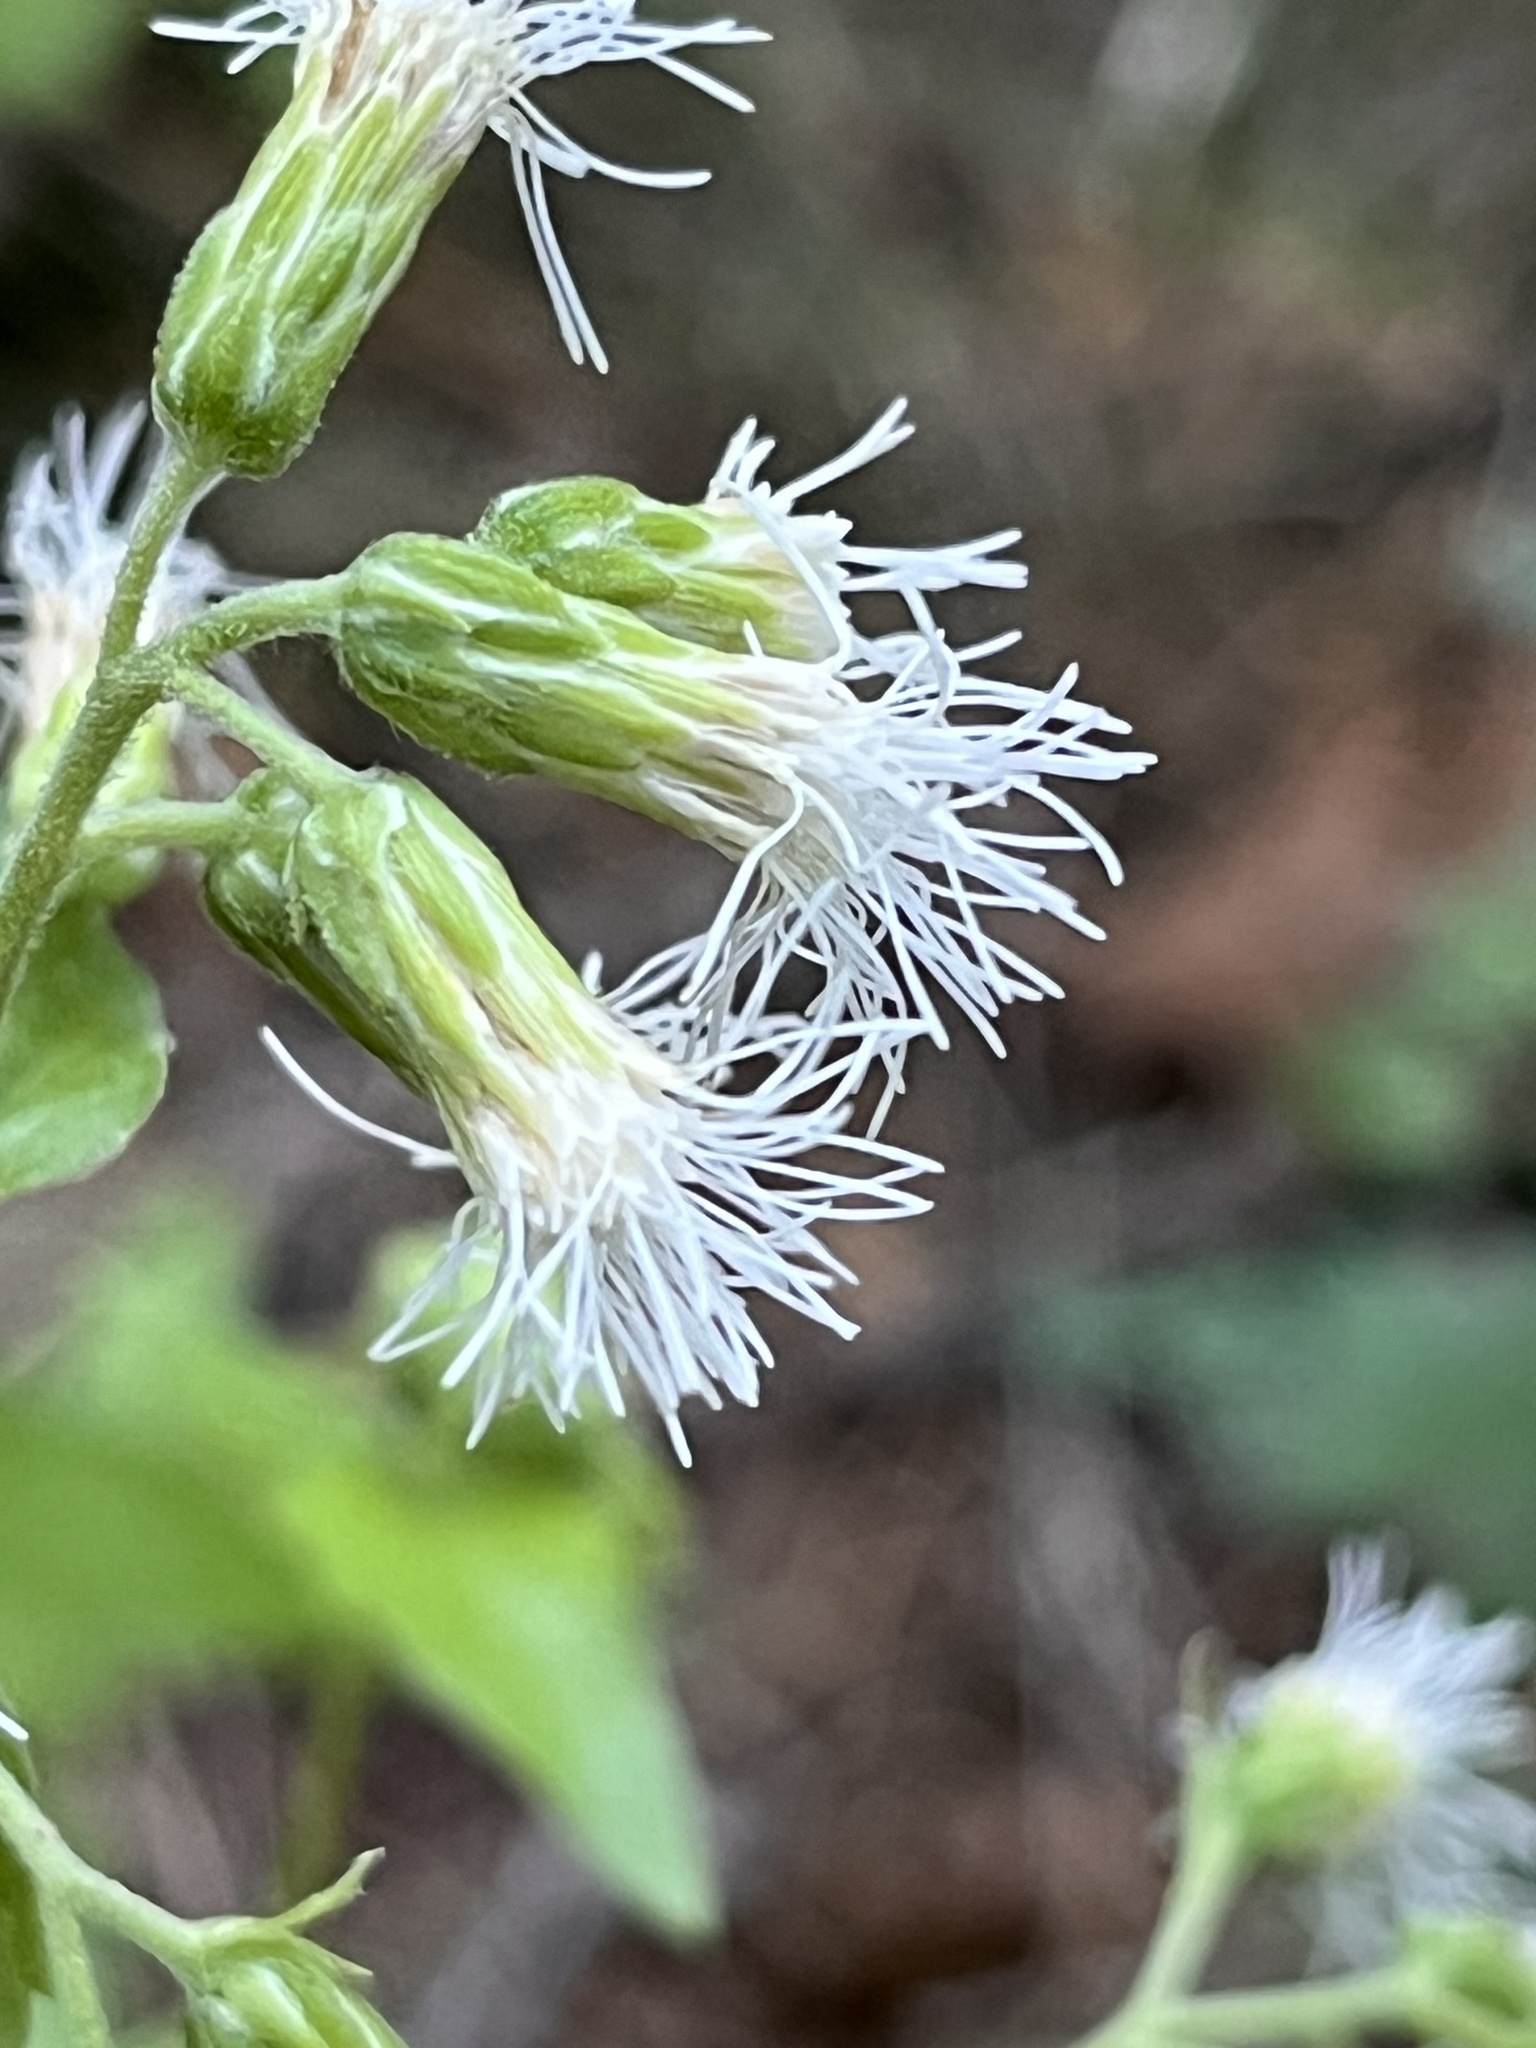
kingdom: Plantae
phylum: Tracheophyta
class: Magnoliopsida
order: Asterales
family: Asteraceae
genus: Brickelliastrum
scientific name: Brickelliastrum fendleri
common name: Fendler's-brickellbush
